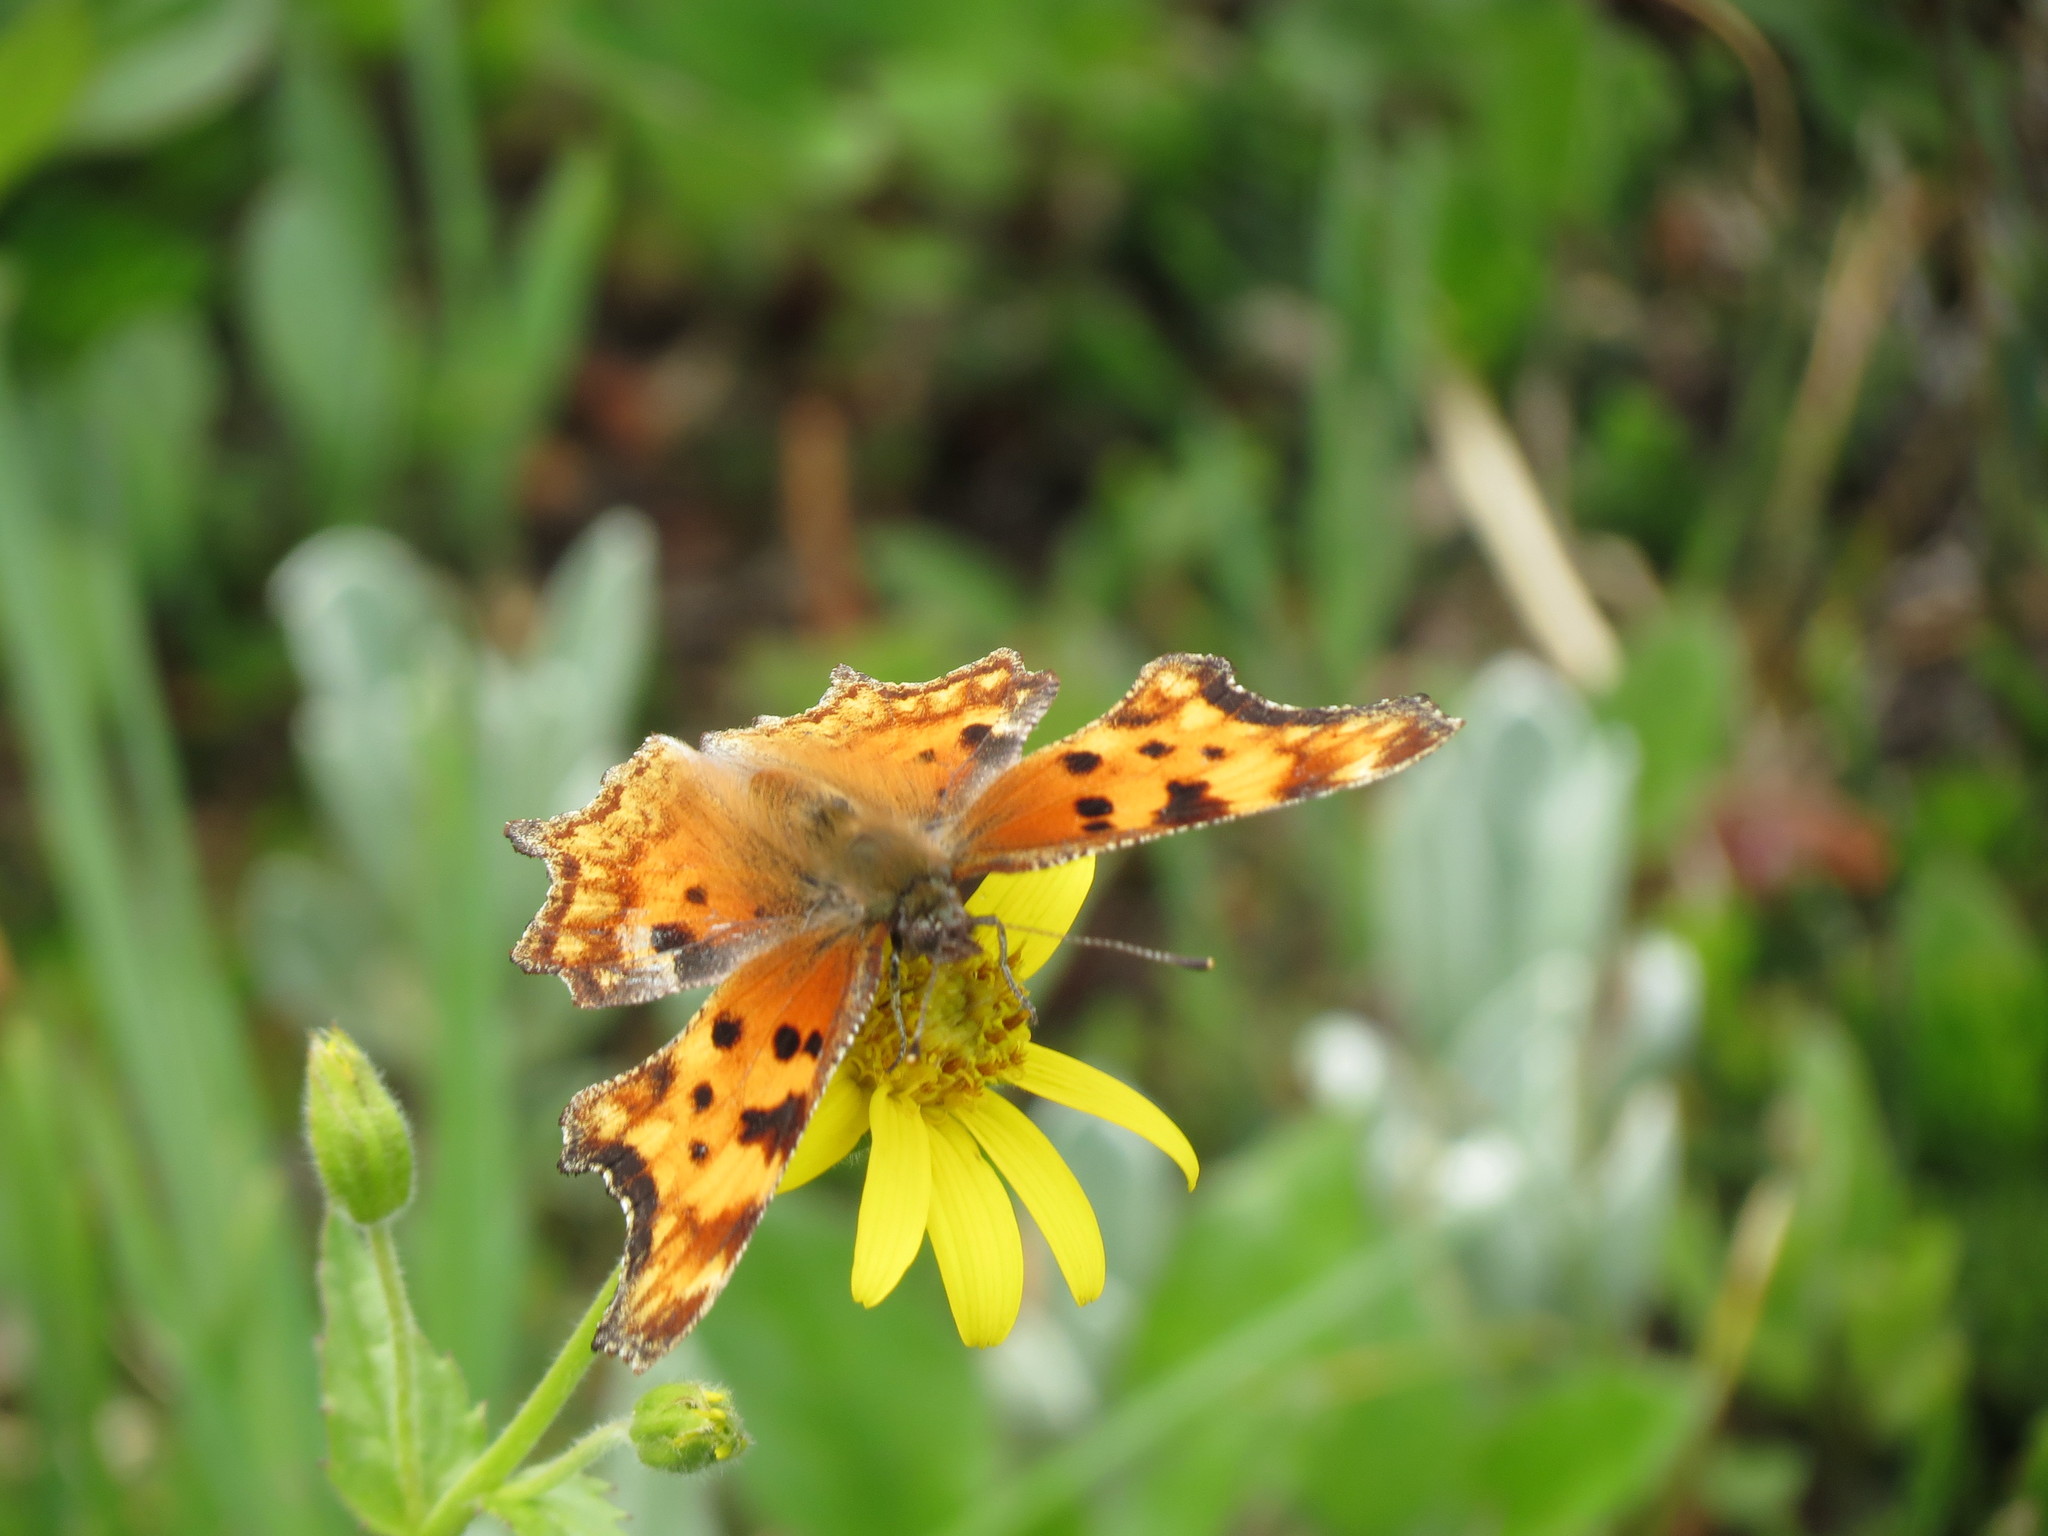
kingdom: Animalia
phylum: Arthropoda
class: Insecta
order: Lepidoptera
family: Nymphalidae
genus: Polygonia
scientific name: Polygonia gracilis
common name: Hoary comma
